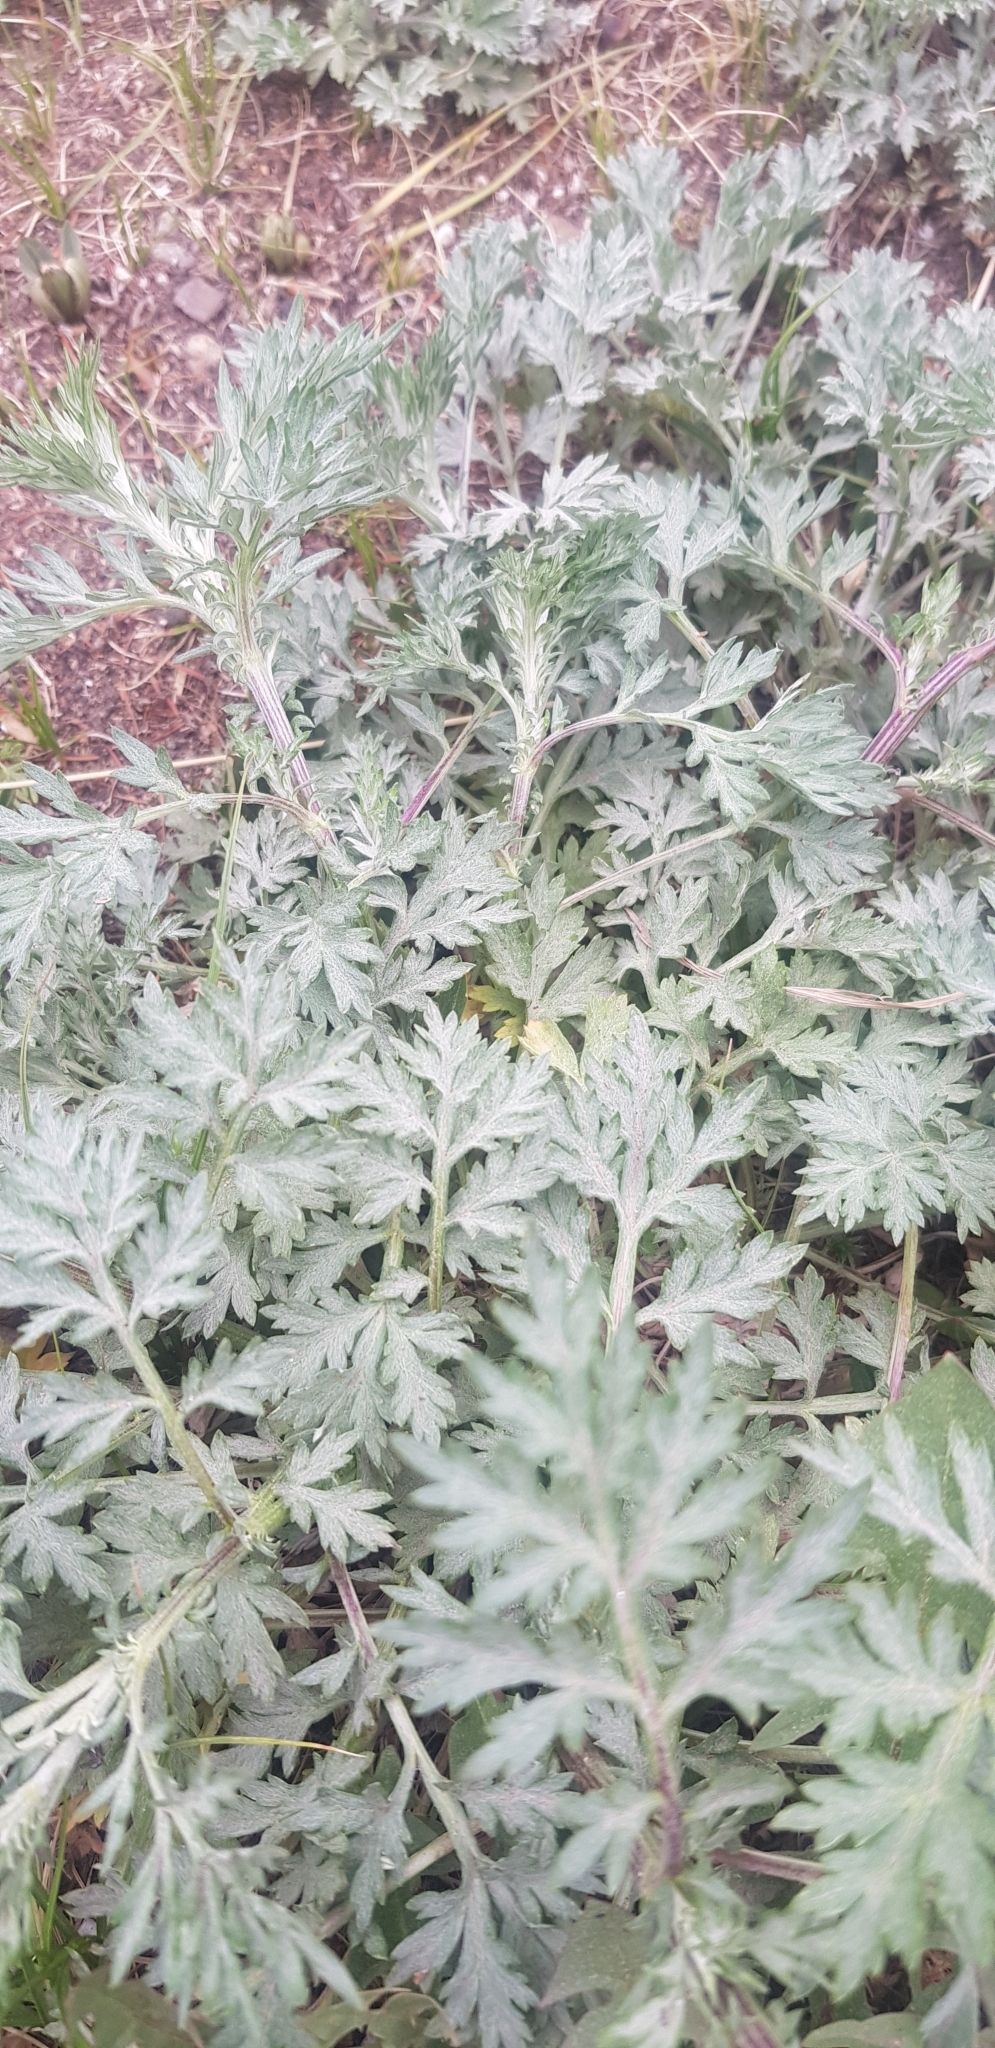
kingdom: Plantae
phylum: Tracheophyta
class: Magnoliopsida
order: Asterales
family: Asteraceae
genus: Artemisia
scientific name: Artemisia sieversiana
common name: Sieversian wormwood
